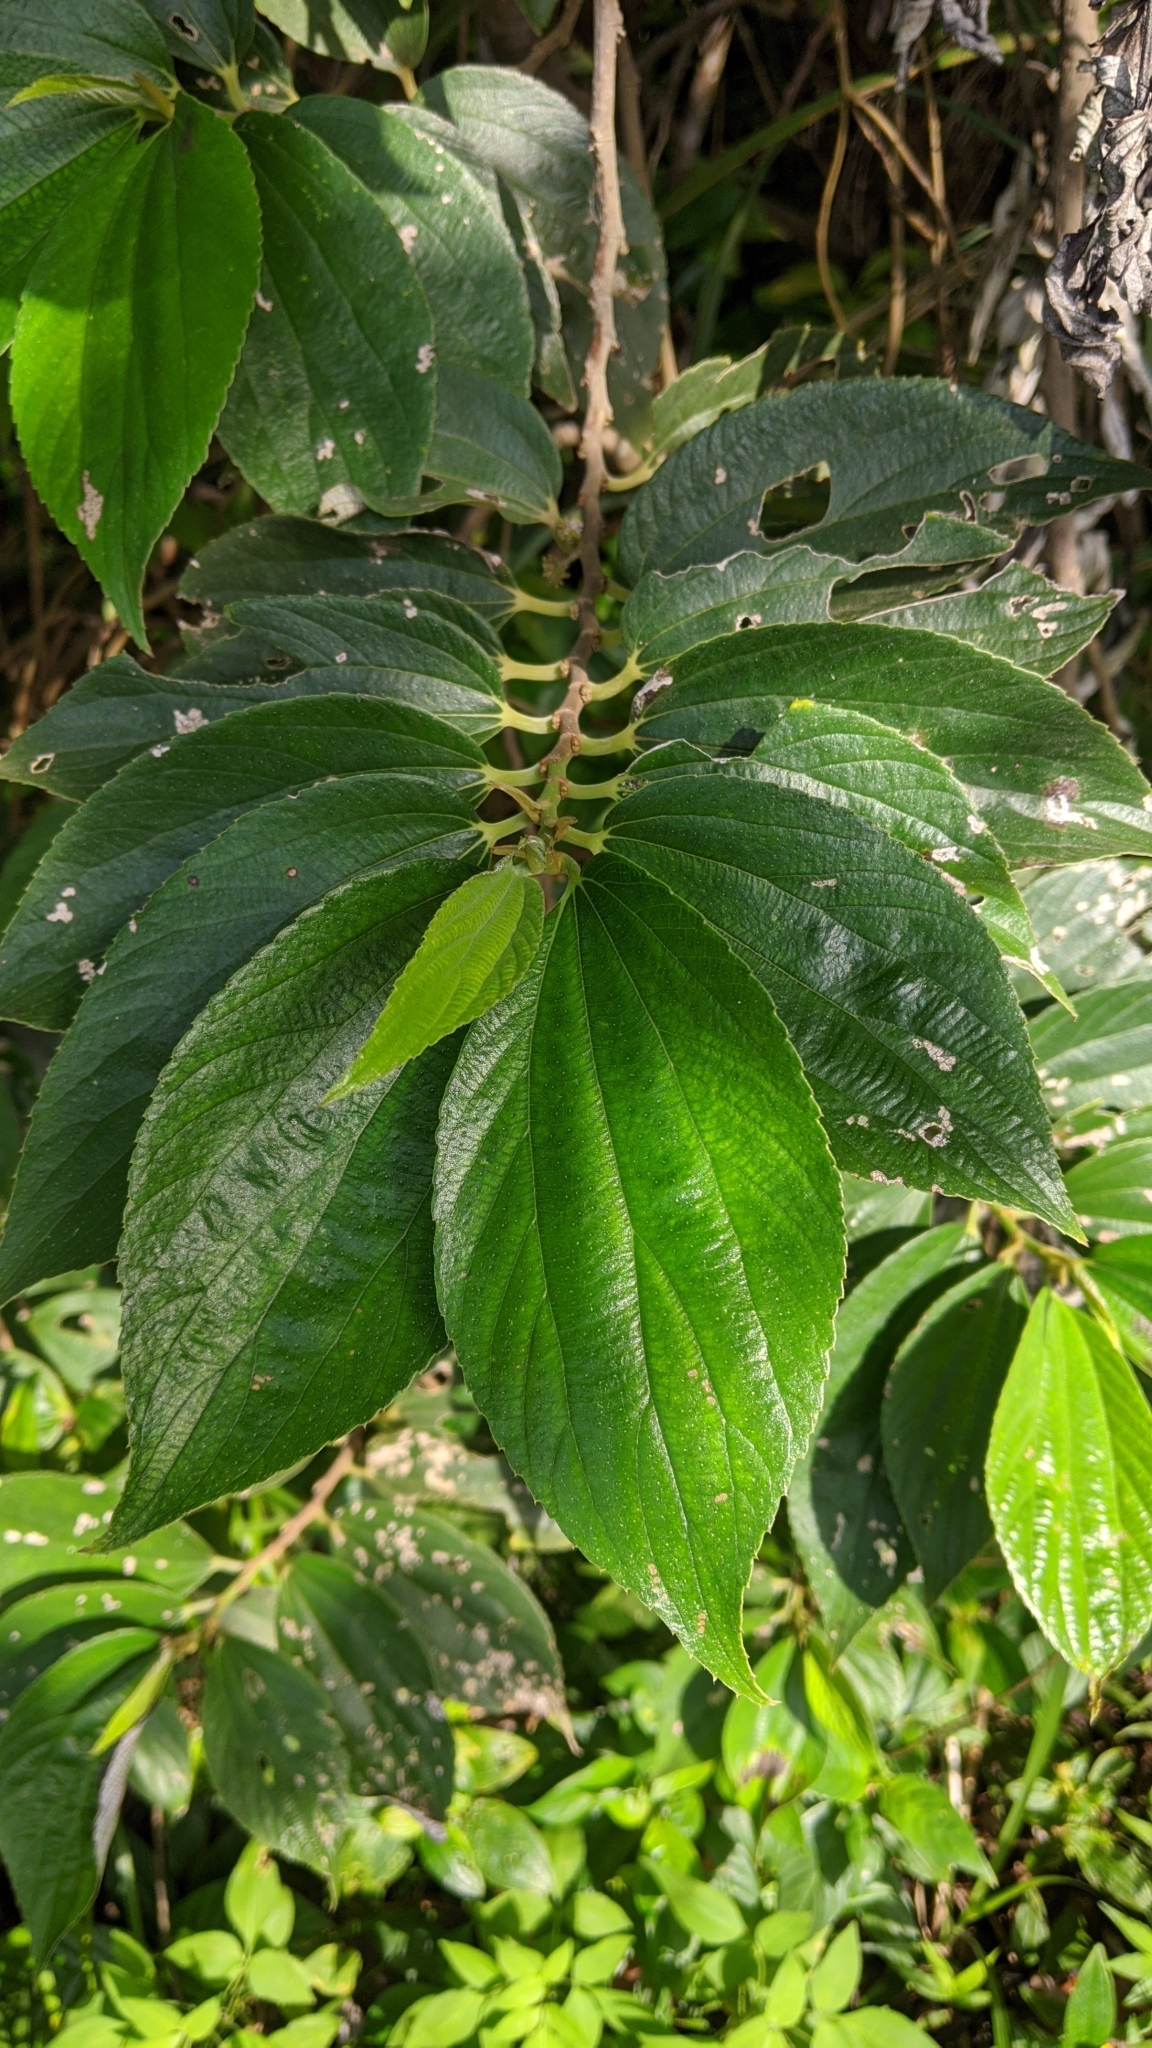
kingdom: Plantae
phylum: Tracheophyta
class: Magnoliopsida
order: Rosales
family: Urticaceae
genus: Leucosyke
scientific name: Leucosyke quadrinervia
